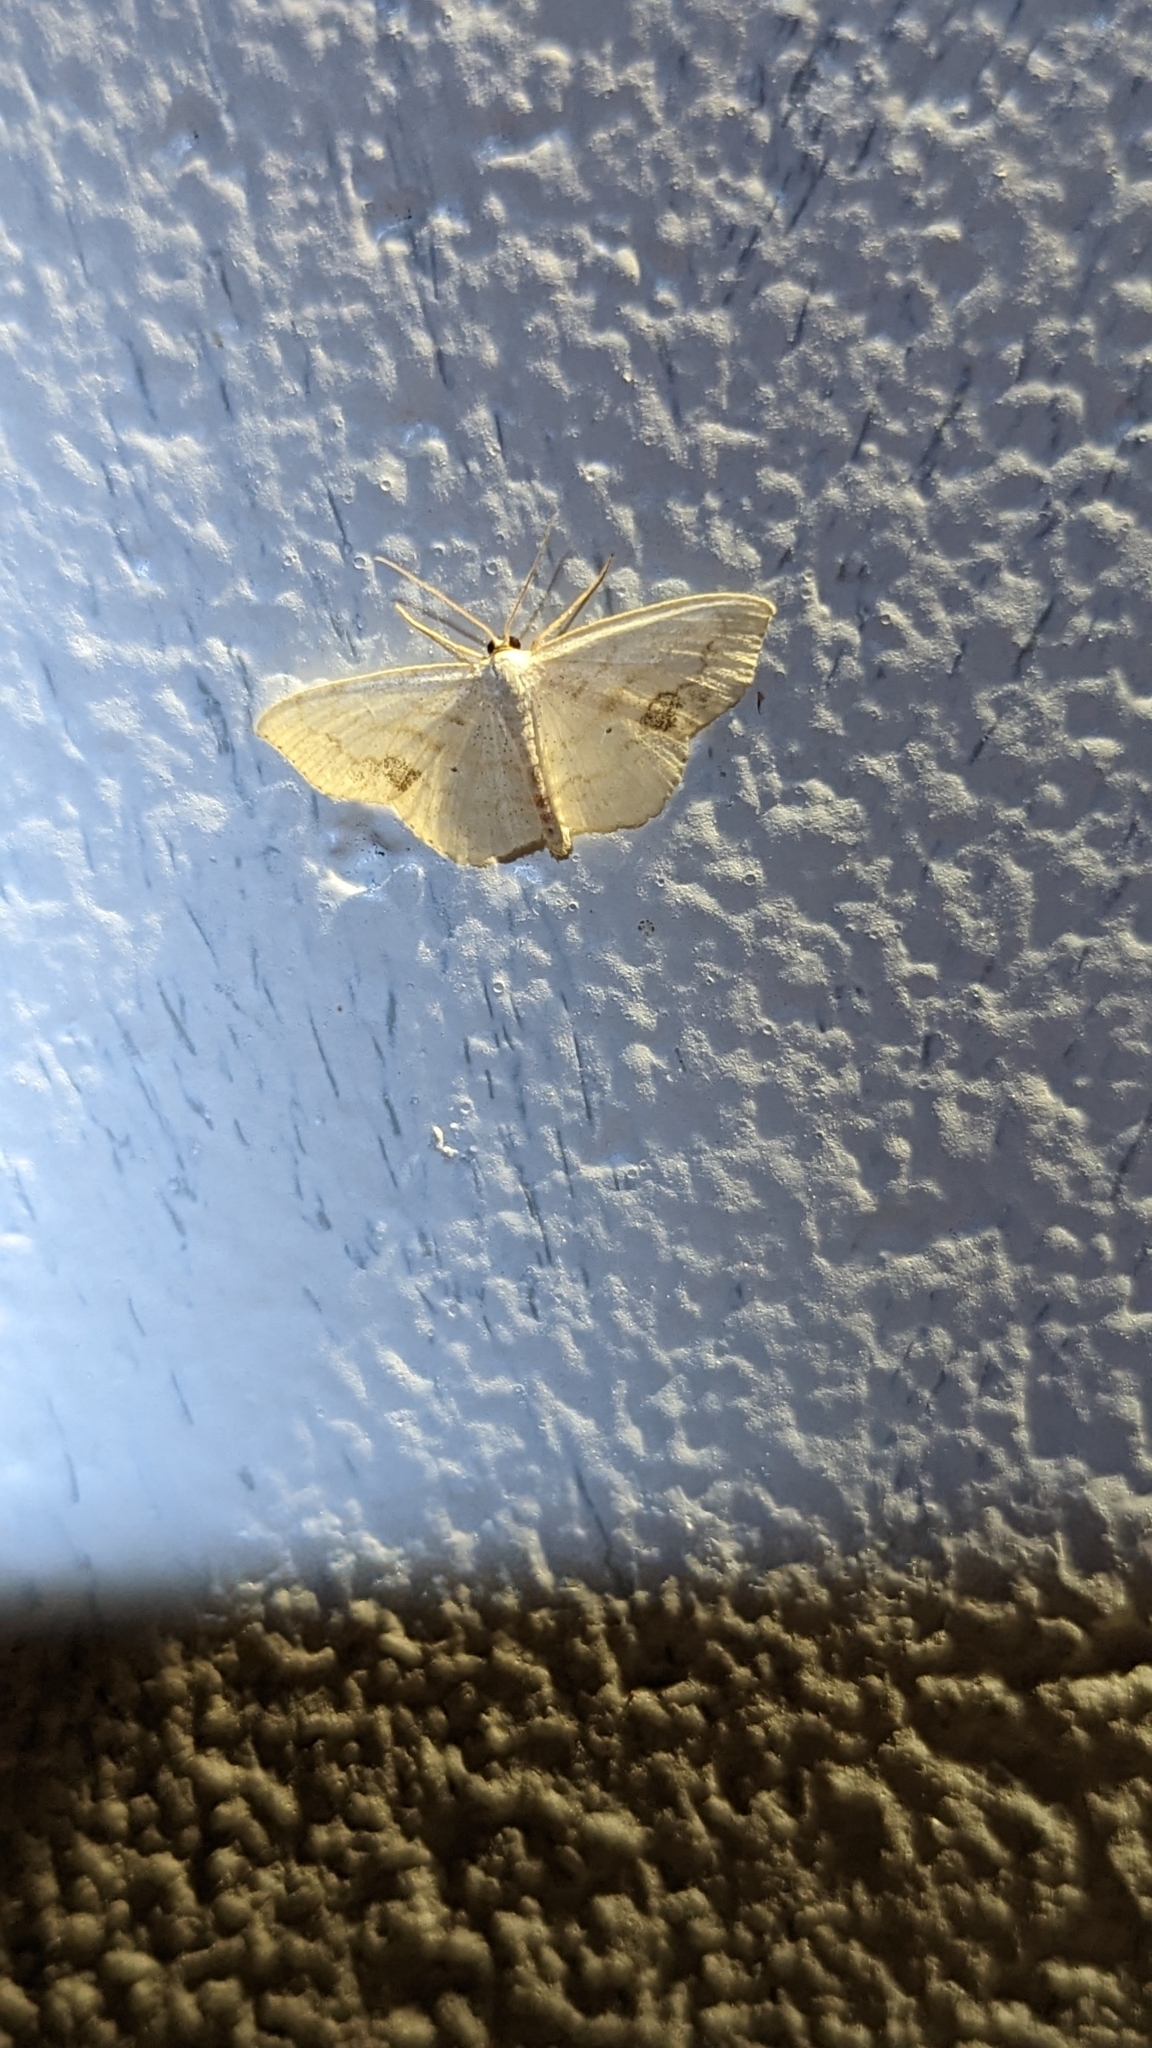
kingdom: Animalia
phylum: Arthropoda
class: Insecta
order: Lepidoptera
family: Geometridae
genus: Scopula
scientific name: Scopula limboundata
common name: Large lace border
